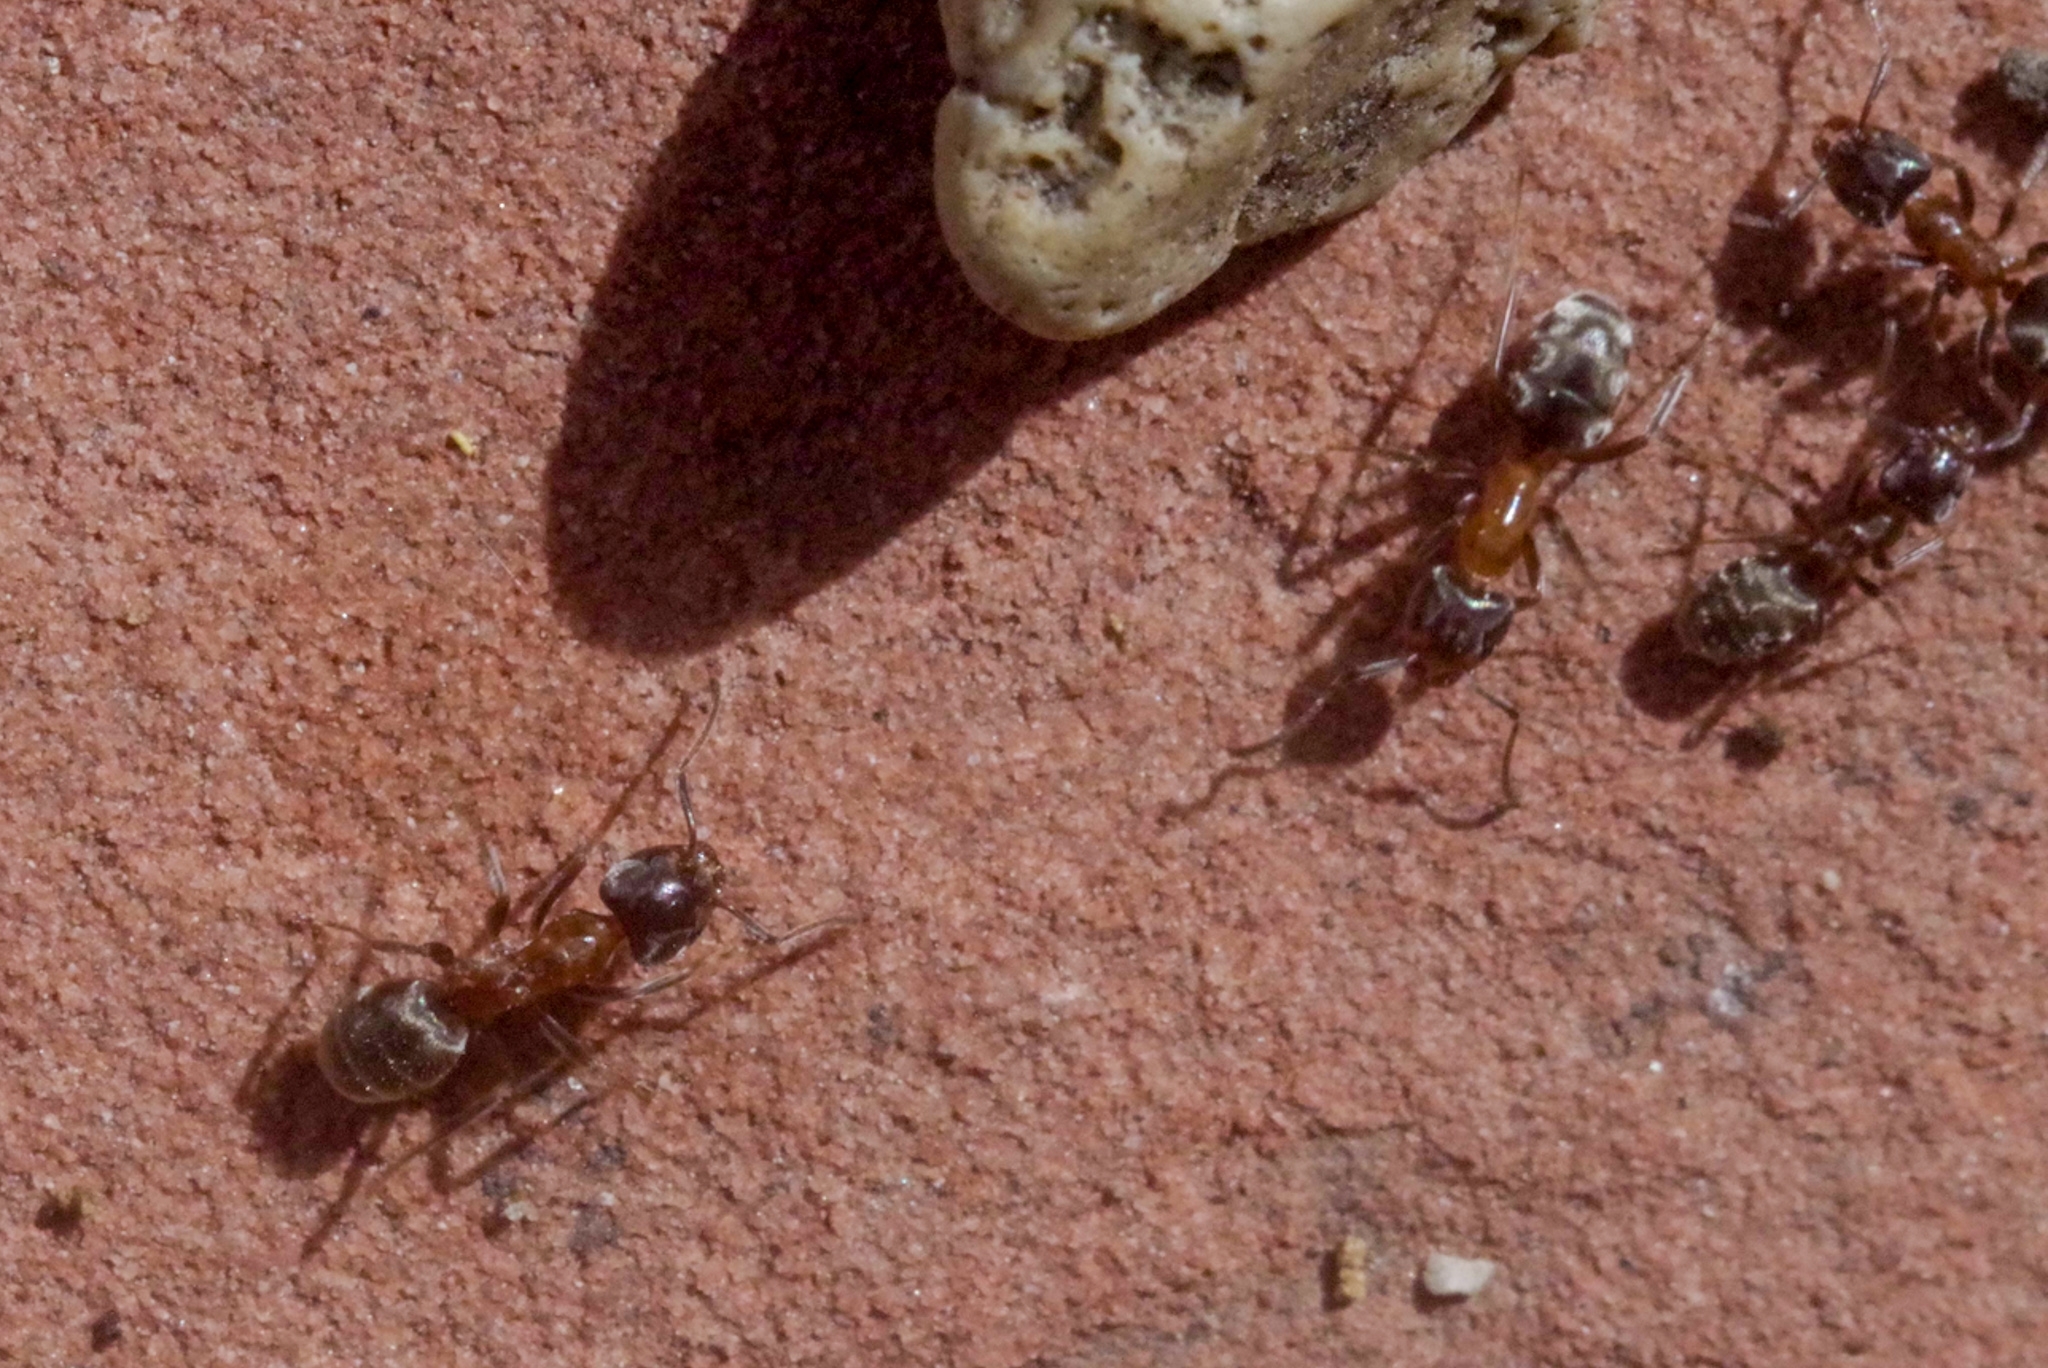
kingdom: Animalia
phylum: Arthropoda
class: Insecta
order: Hymenoptera
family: Formicidae
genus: Liometopum
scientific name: Liometopum occidentale
